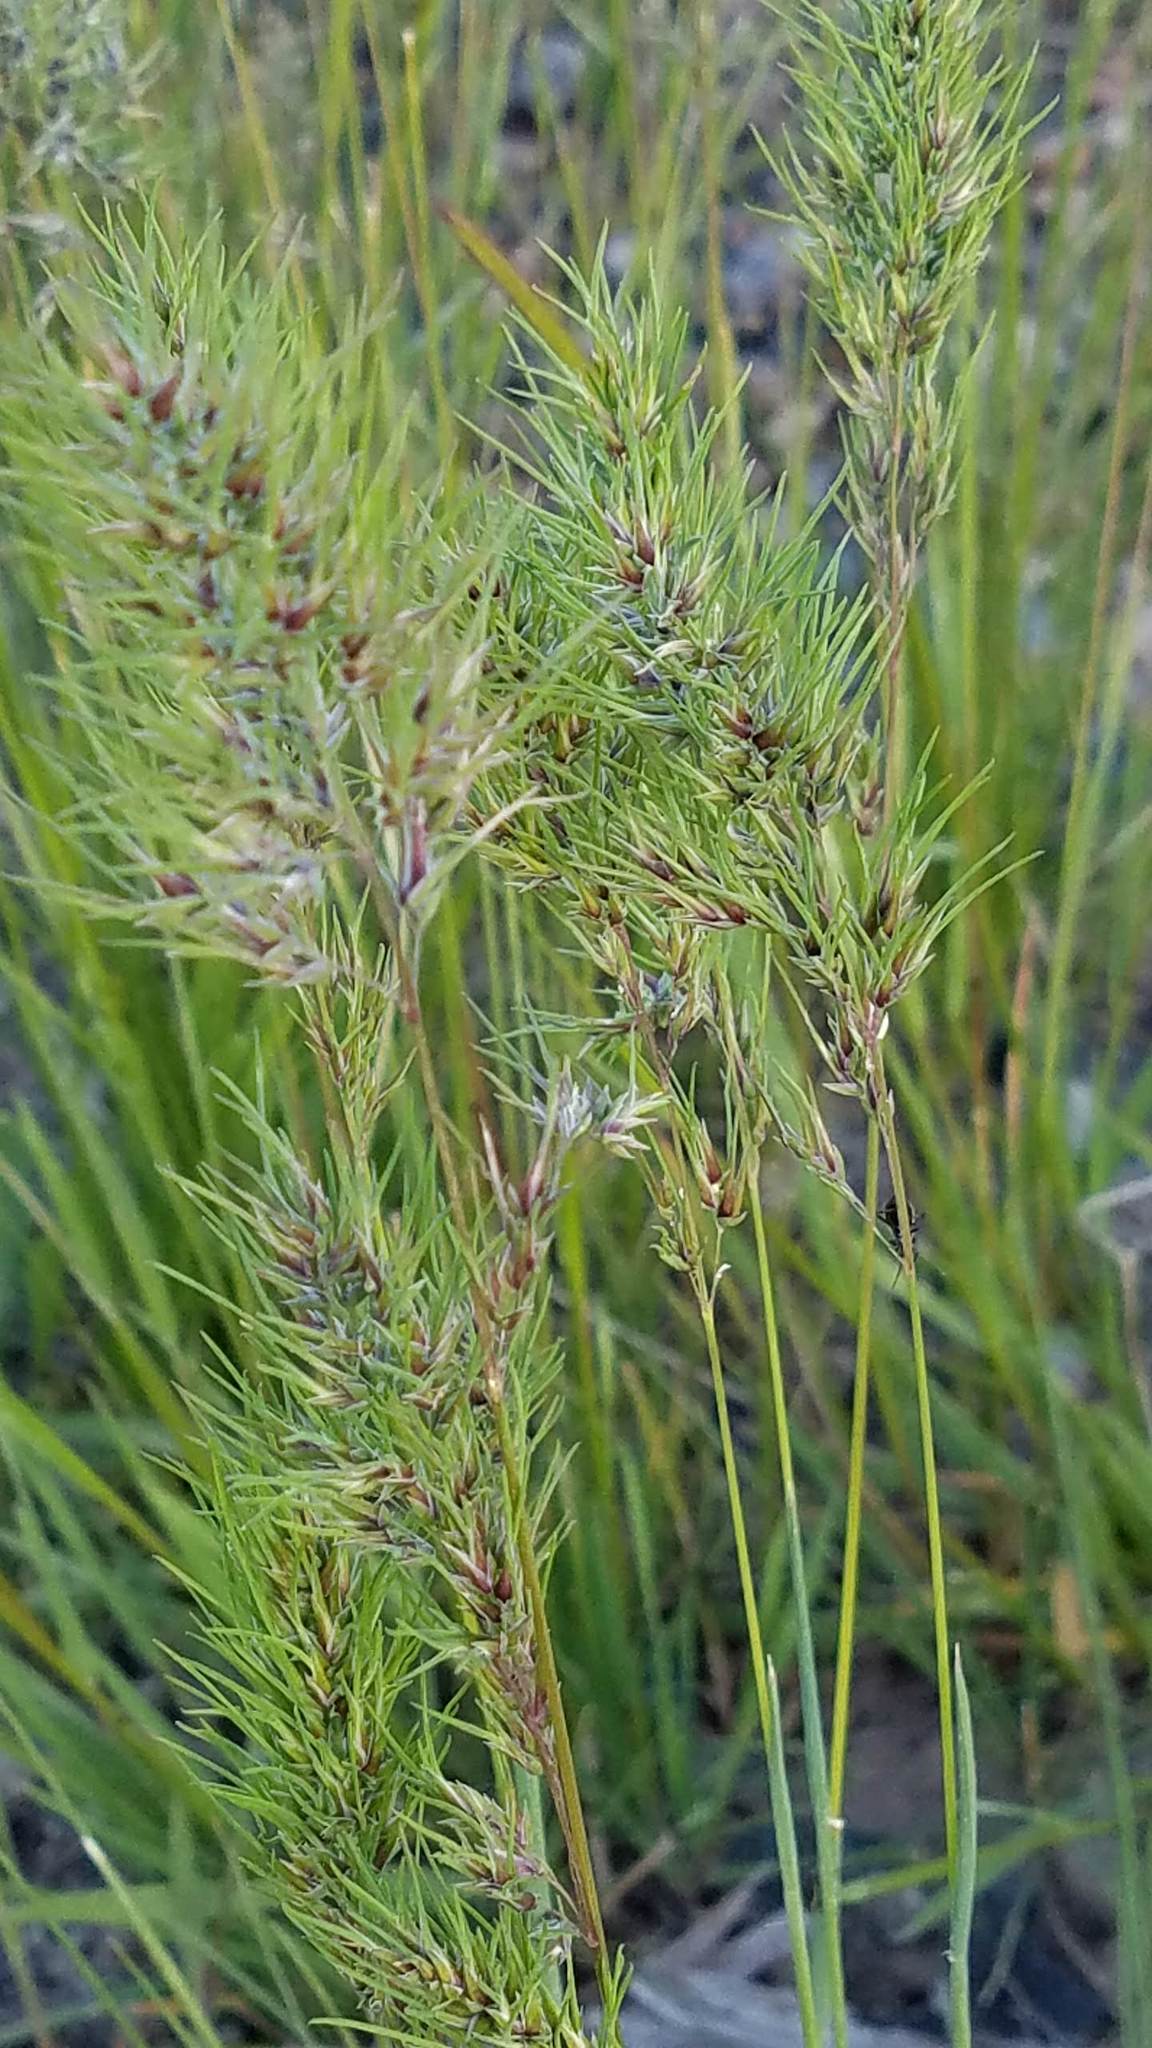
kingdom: Plantae
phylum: Tracheophyta
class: Liliopsida
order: Poales
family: Poaceae
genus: Poa
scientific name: Poa bulbosa
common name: Bulbous bluegrass
